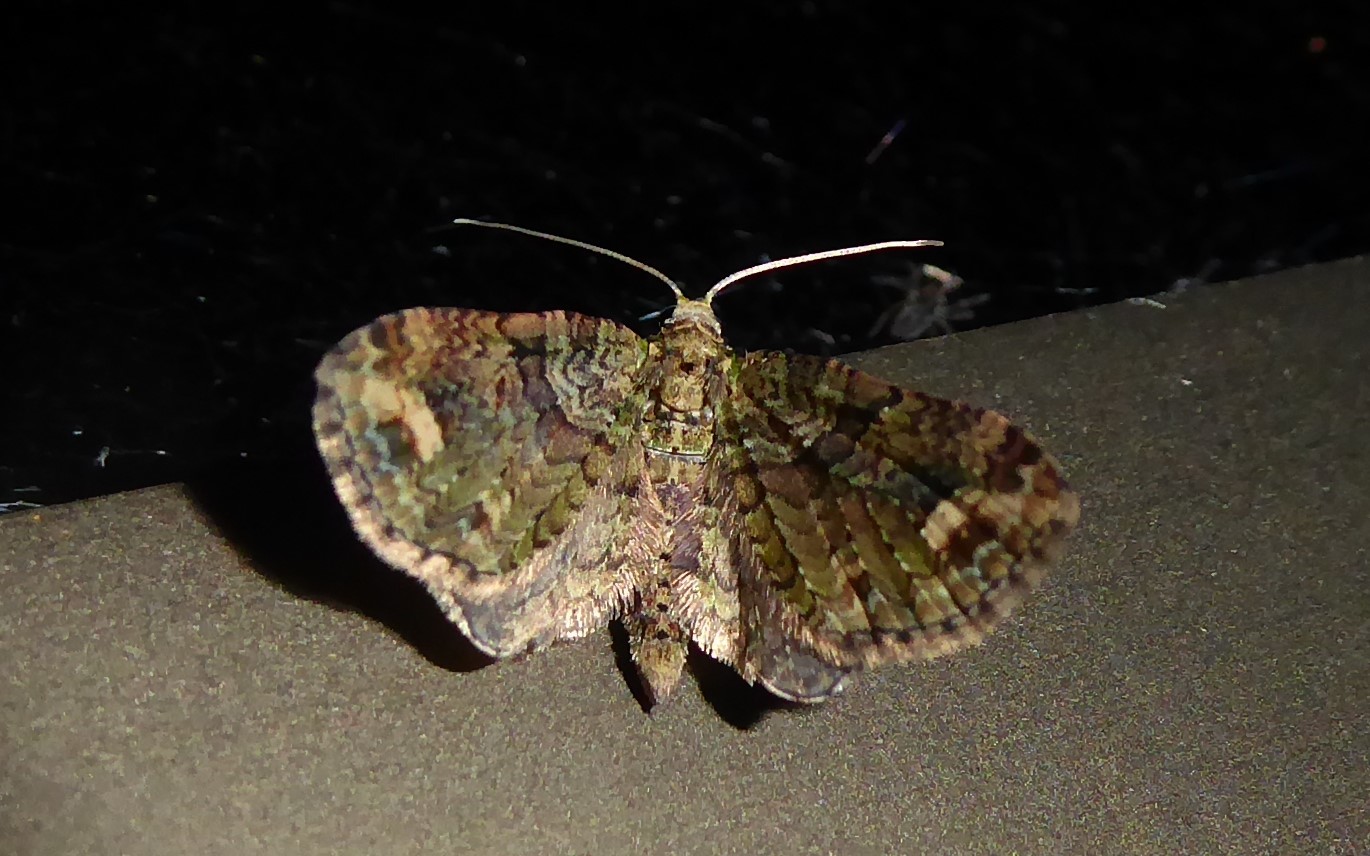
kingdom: Animalia
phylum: Arthropoda
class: Insecta
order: Lepidoptera
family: Geometridae
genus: Idaea
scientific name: Idaea mutanda
